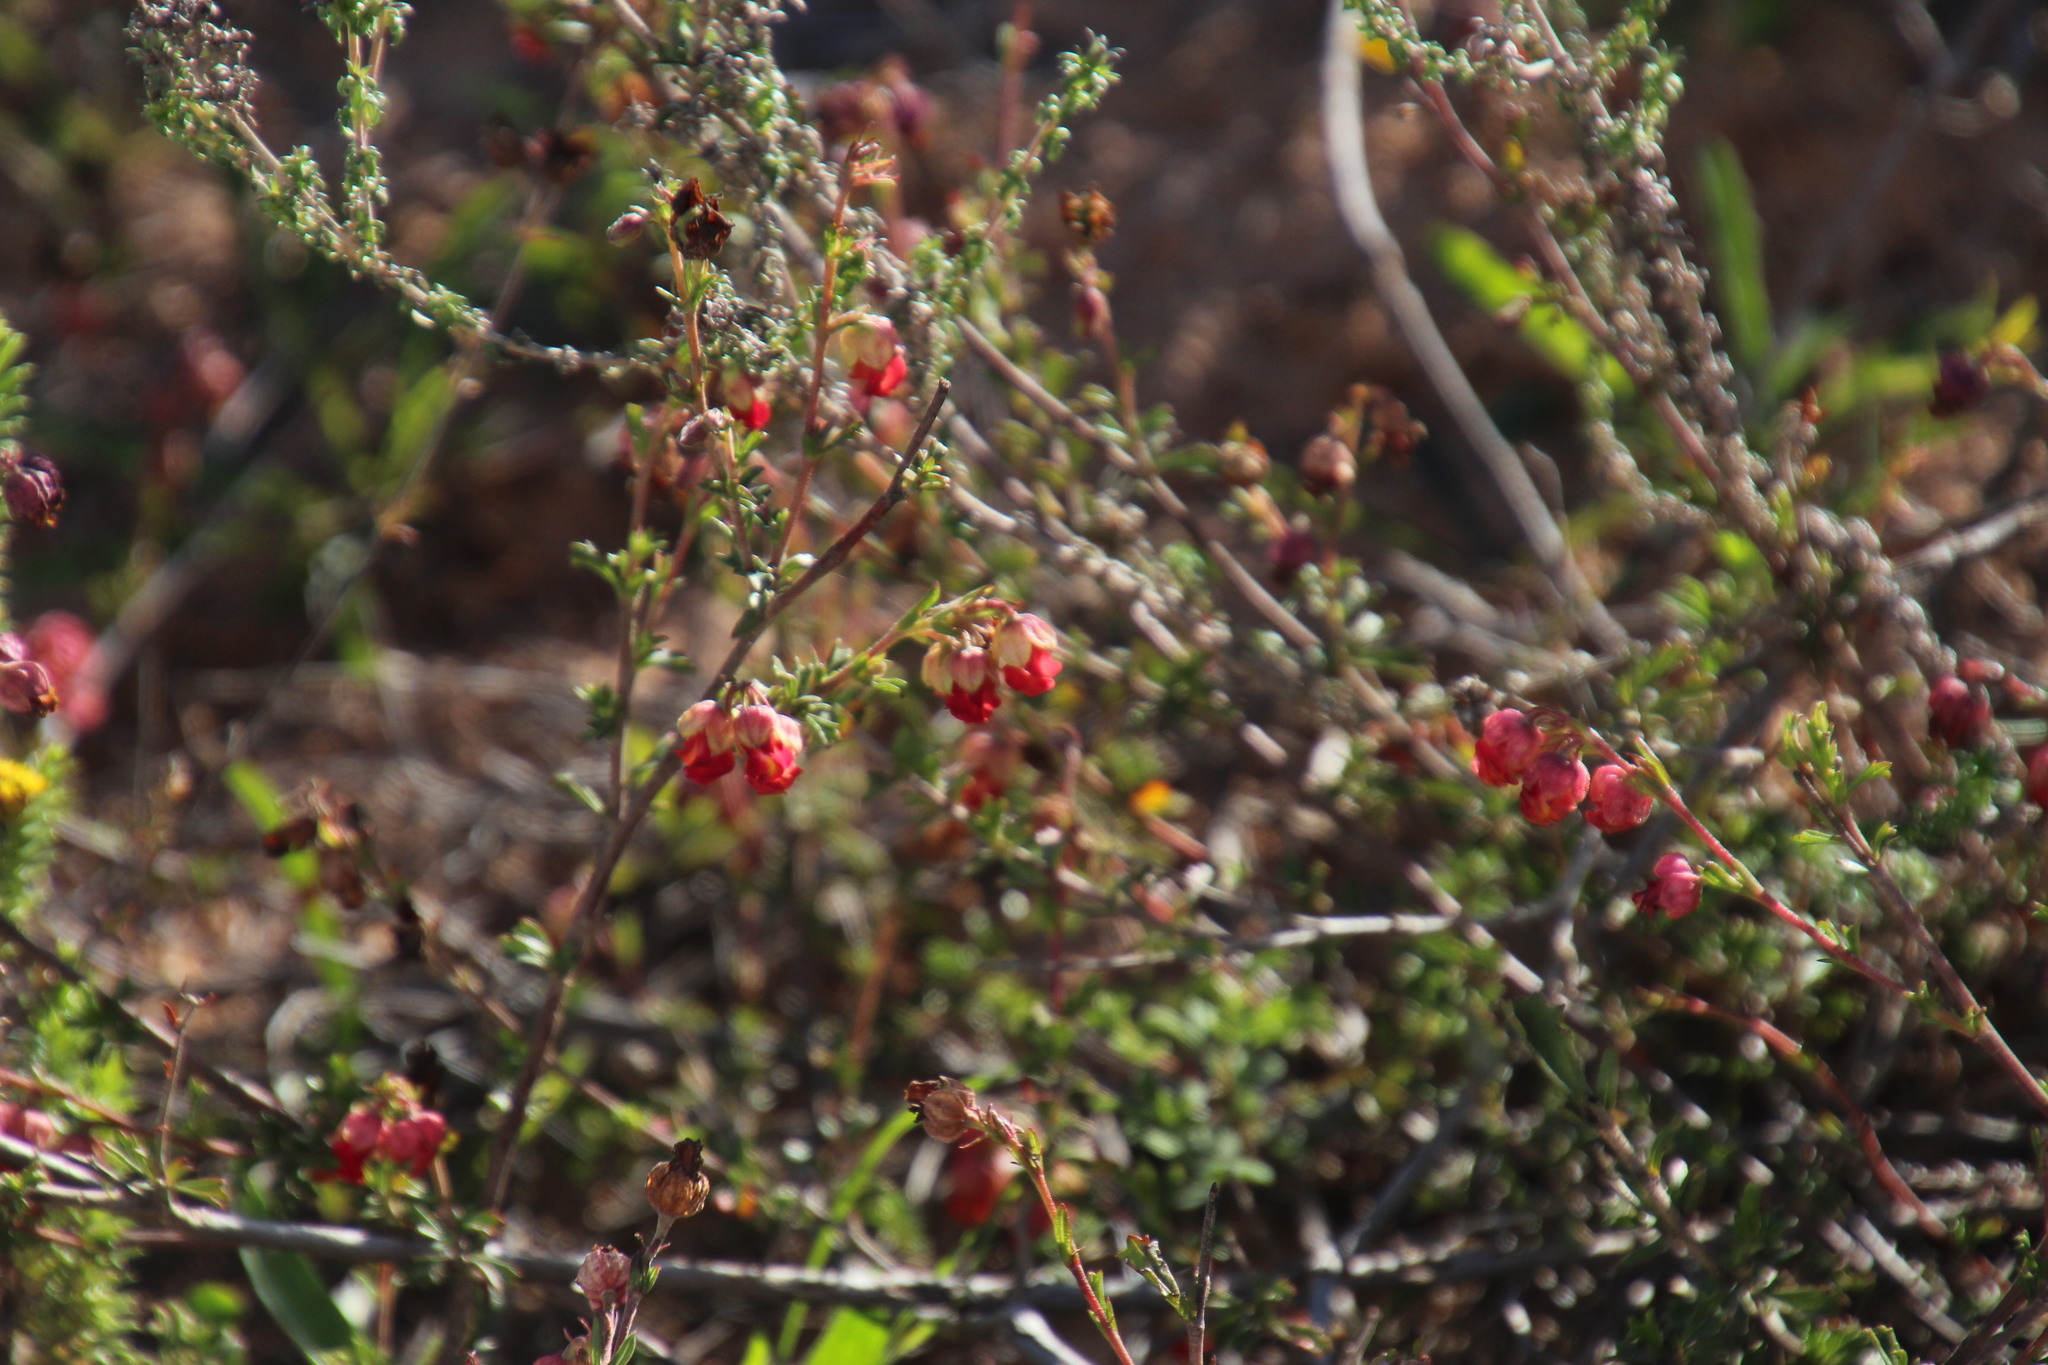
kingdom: Plantae
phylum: Tracheophyta
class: Magnoliopsida
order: Malvales
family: Malvaceae
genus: Hermannia
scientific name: Hermannia filifolia
